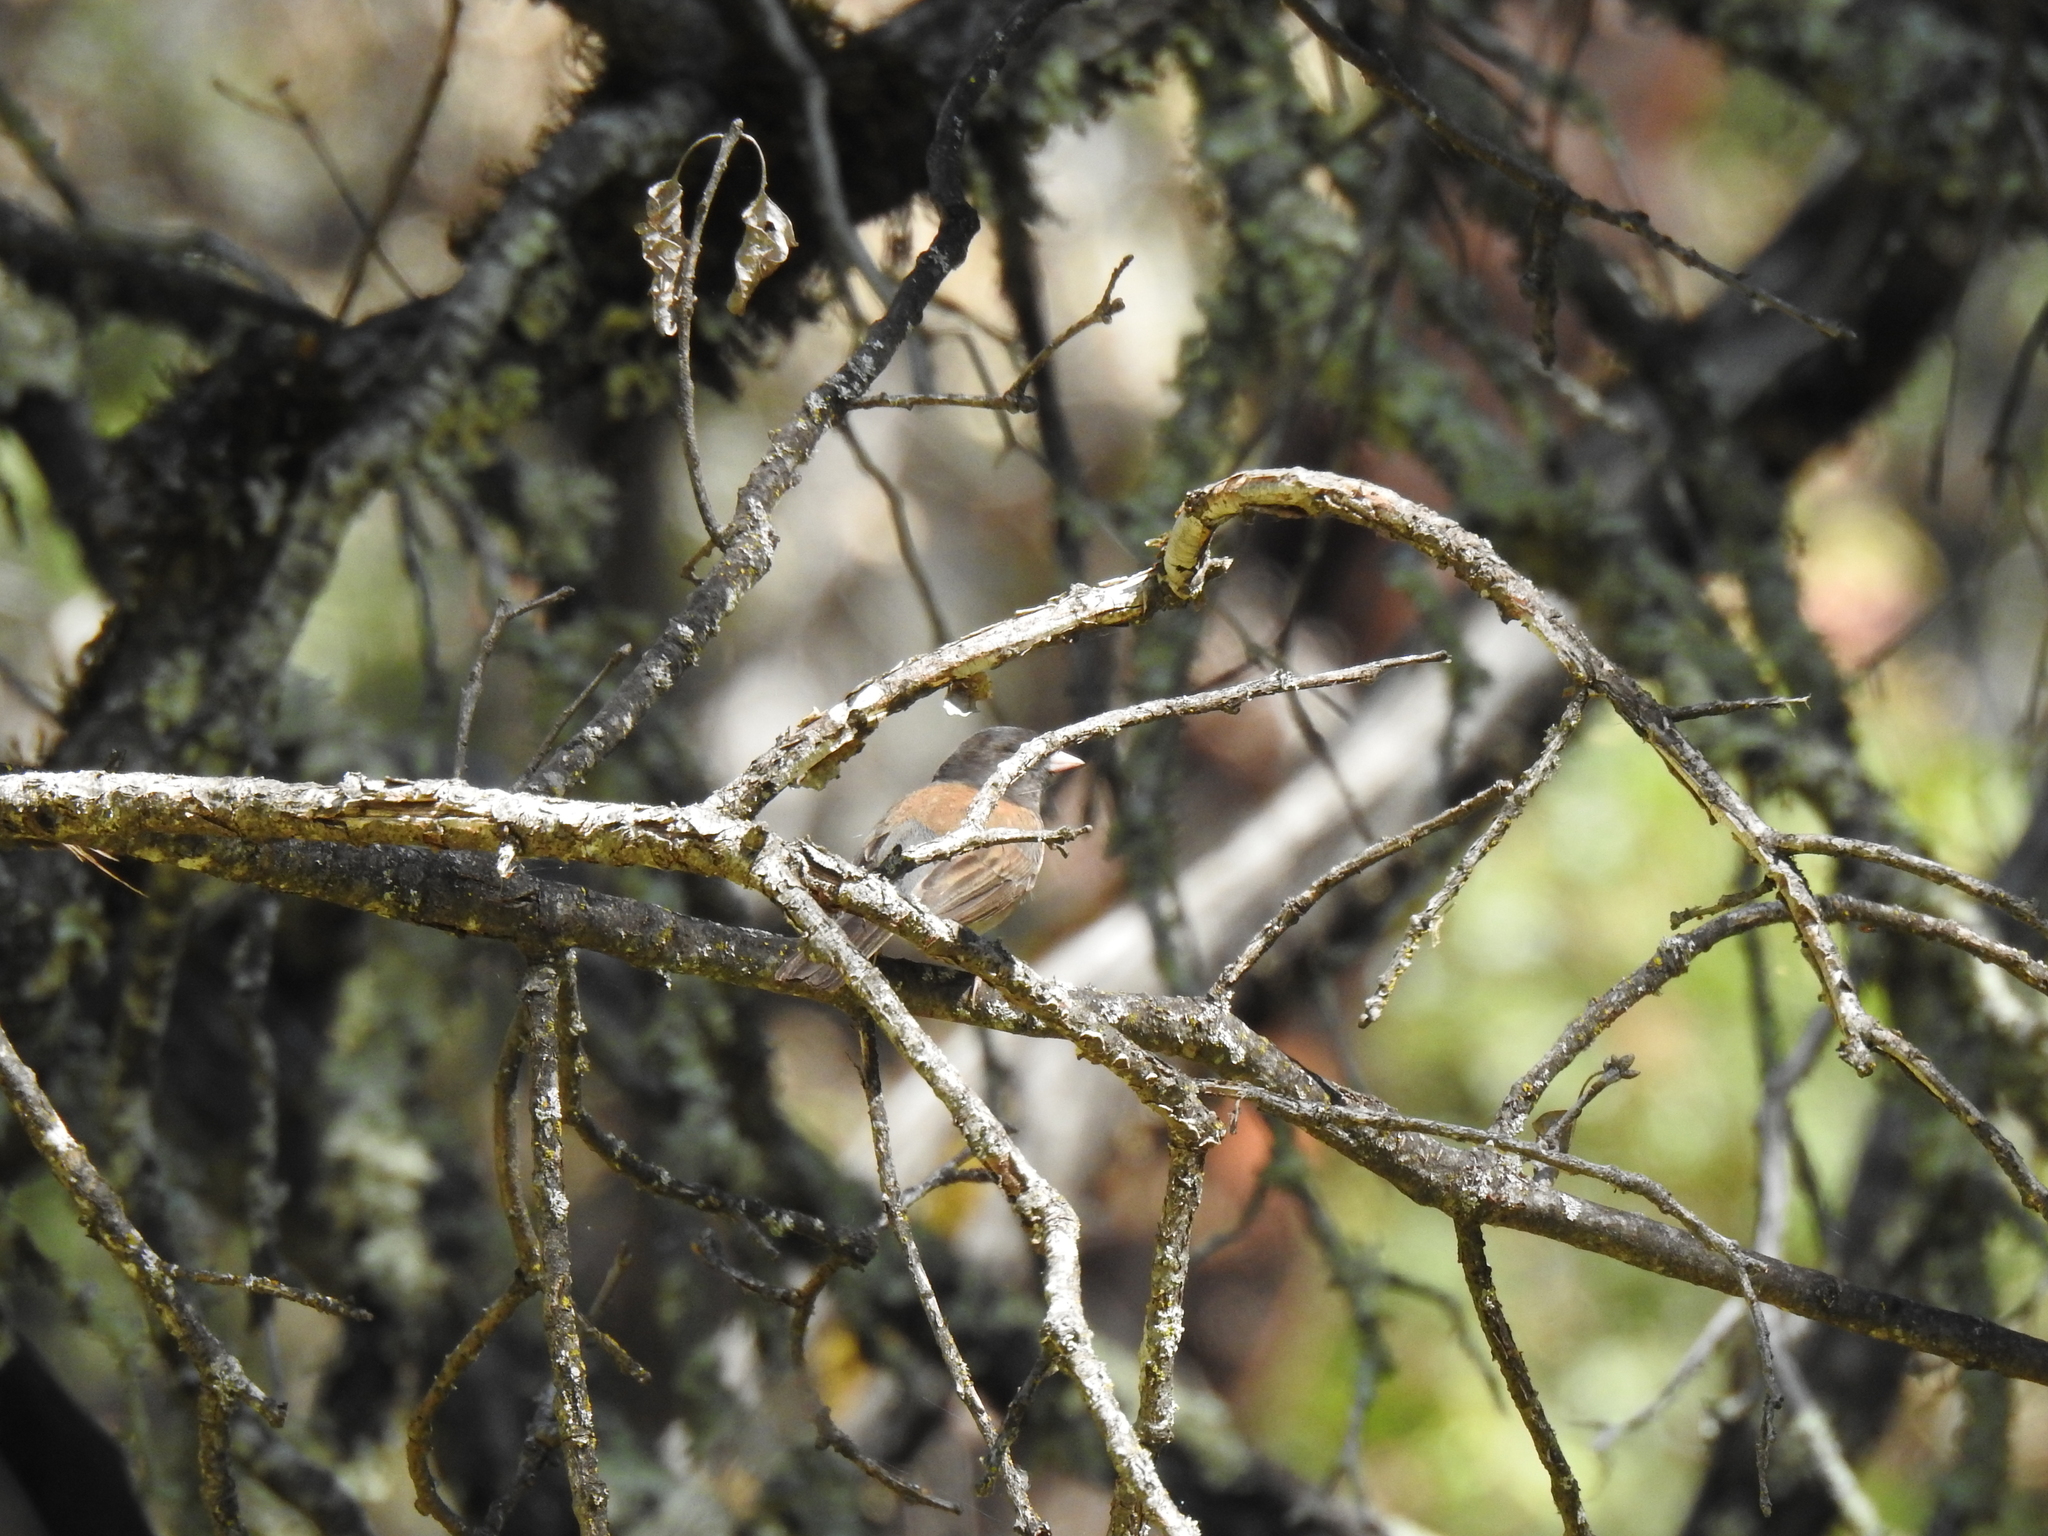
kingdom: Animalia
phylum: Chordata
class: Aves
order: Passeriformes
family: Passerellidae
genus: Junco
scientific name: Junco hyemalis
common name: Dark-eyed junco
